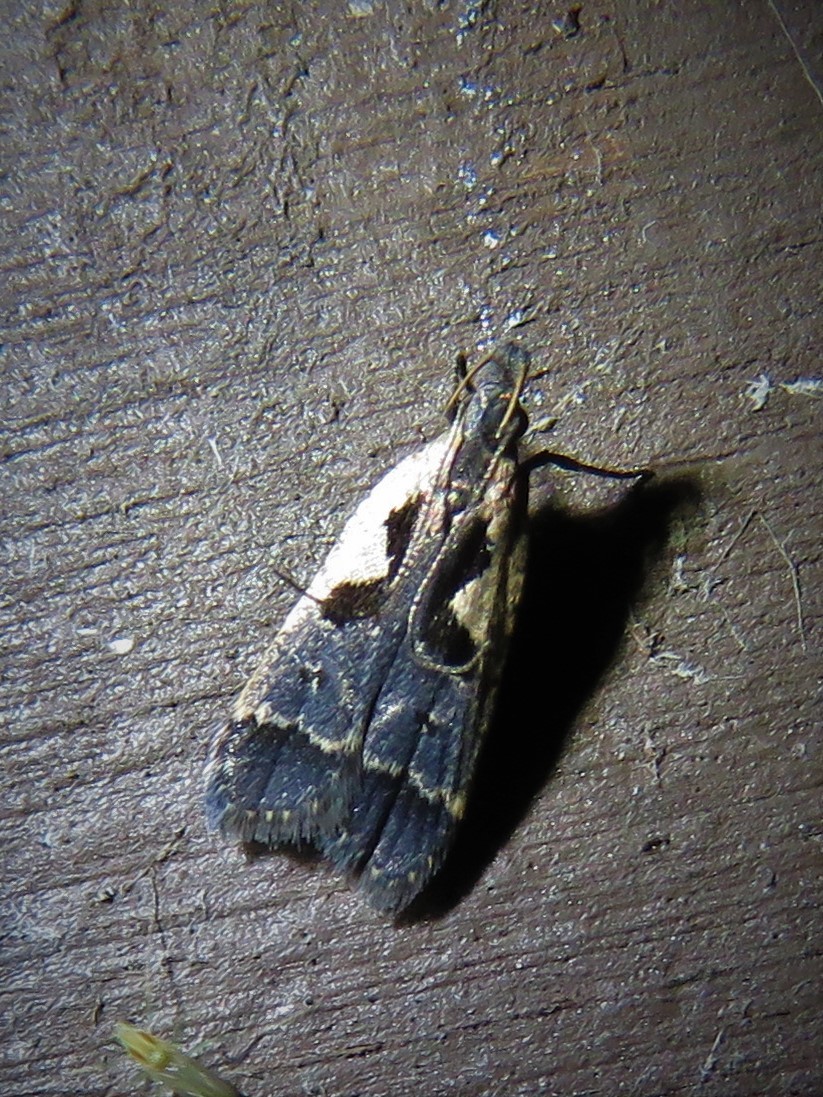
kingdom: Animalia
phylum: Arthropoda
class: Insecta
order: Lepidoptera
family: Gelechiidae
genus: Dichomeris
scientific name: Dichomeris setosella
